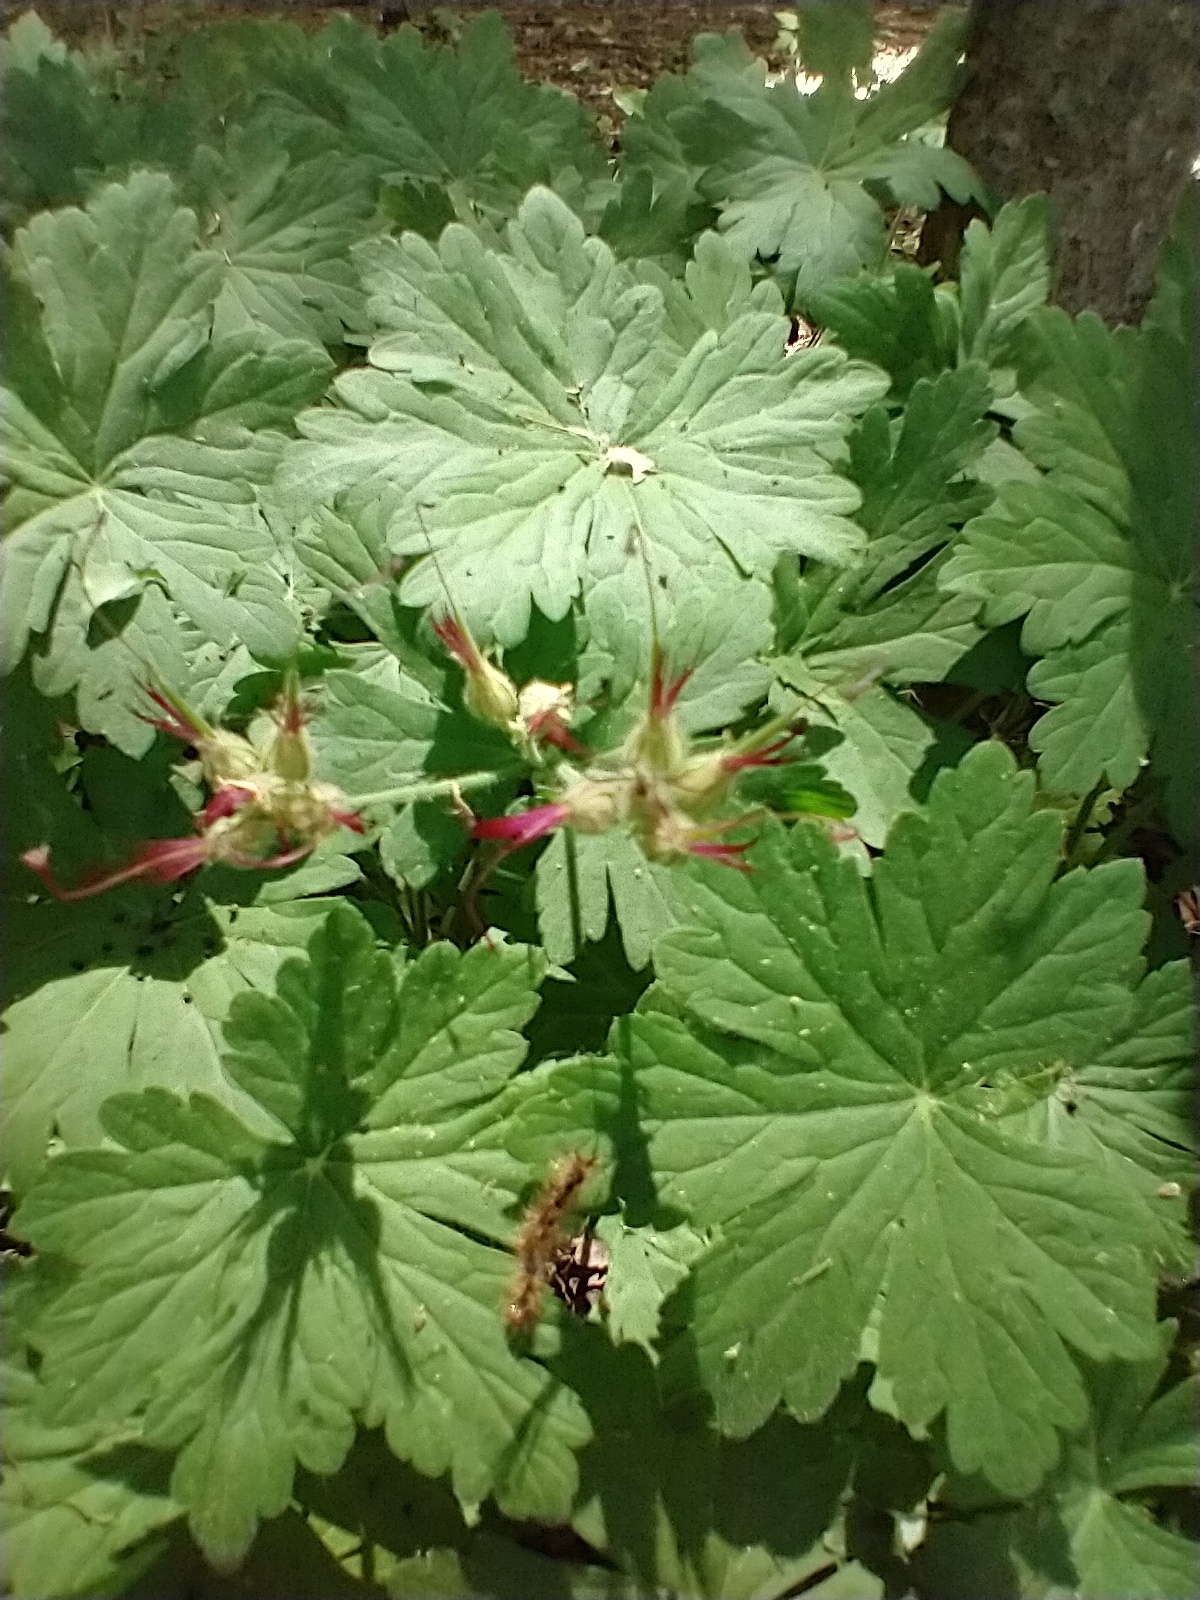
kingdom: Plantae
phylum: Tracheophyta
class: Magnoliopsida
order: Geraniales
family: Geraniaceae
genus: Geranium
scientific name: Geranium macrorrhizum
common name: Rock crane's-bill
